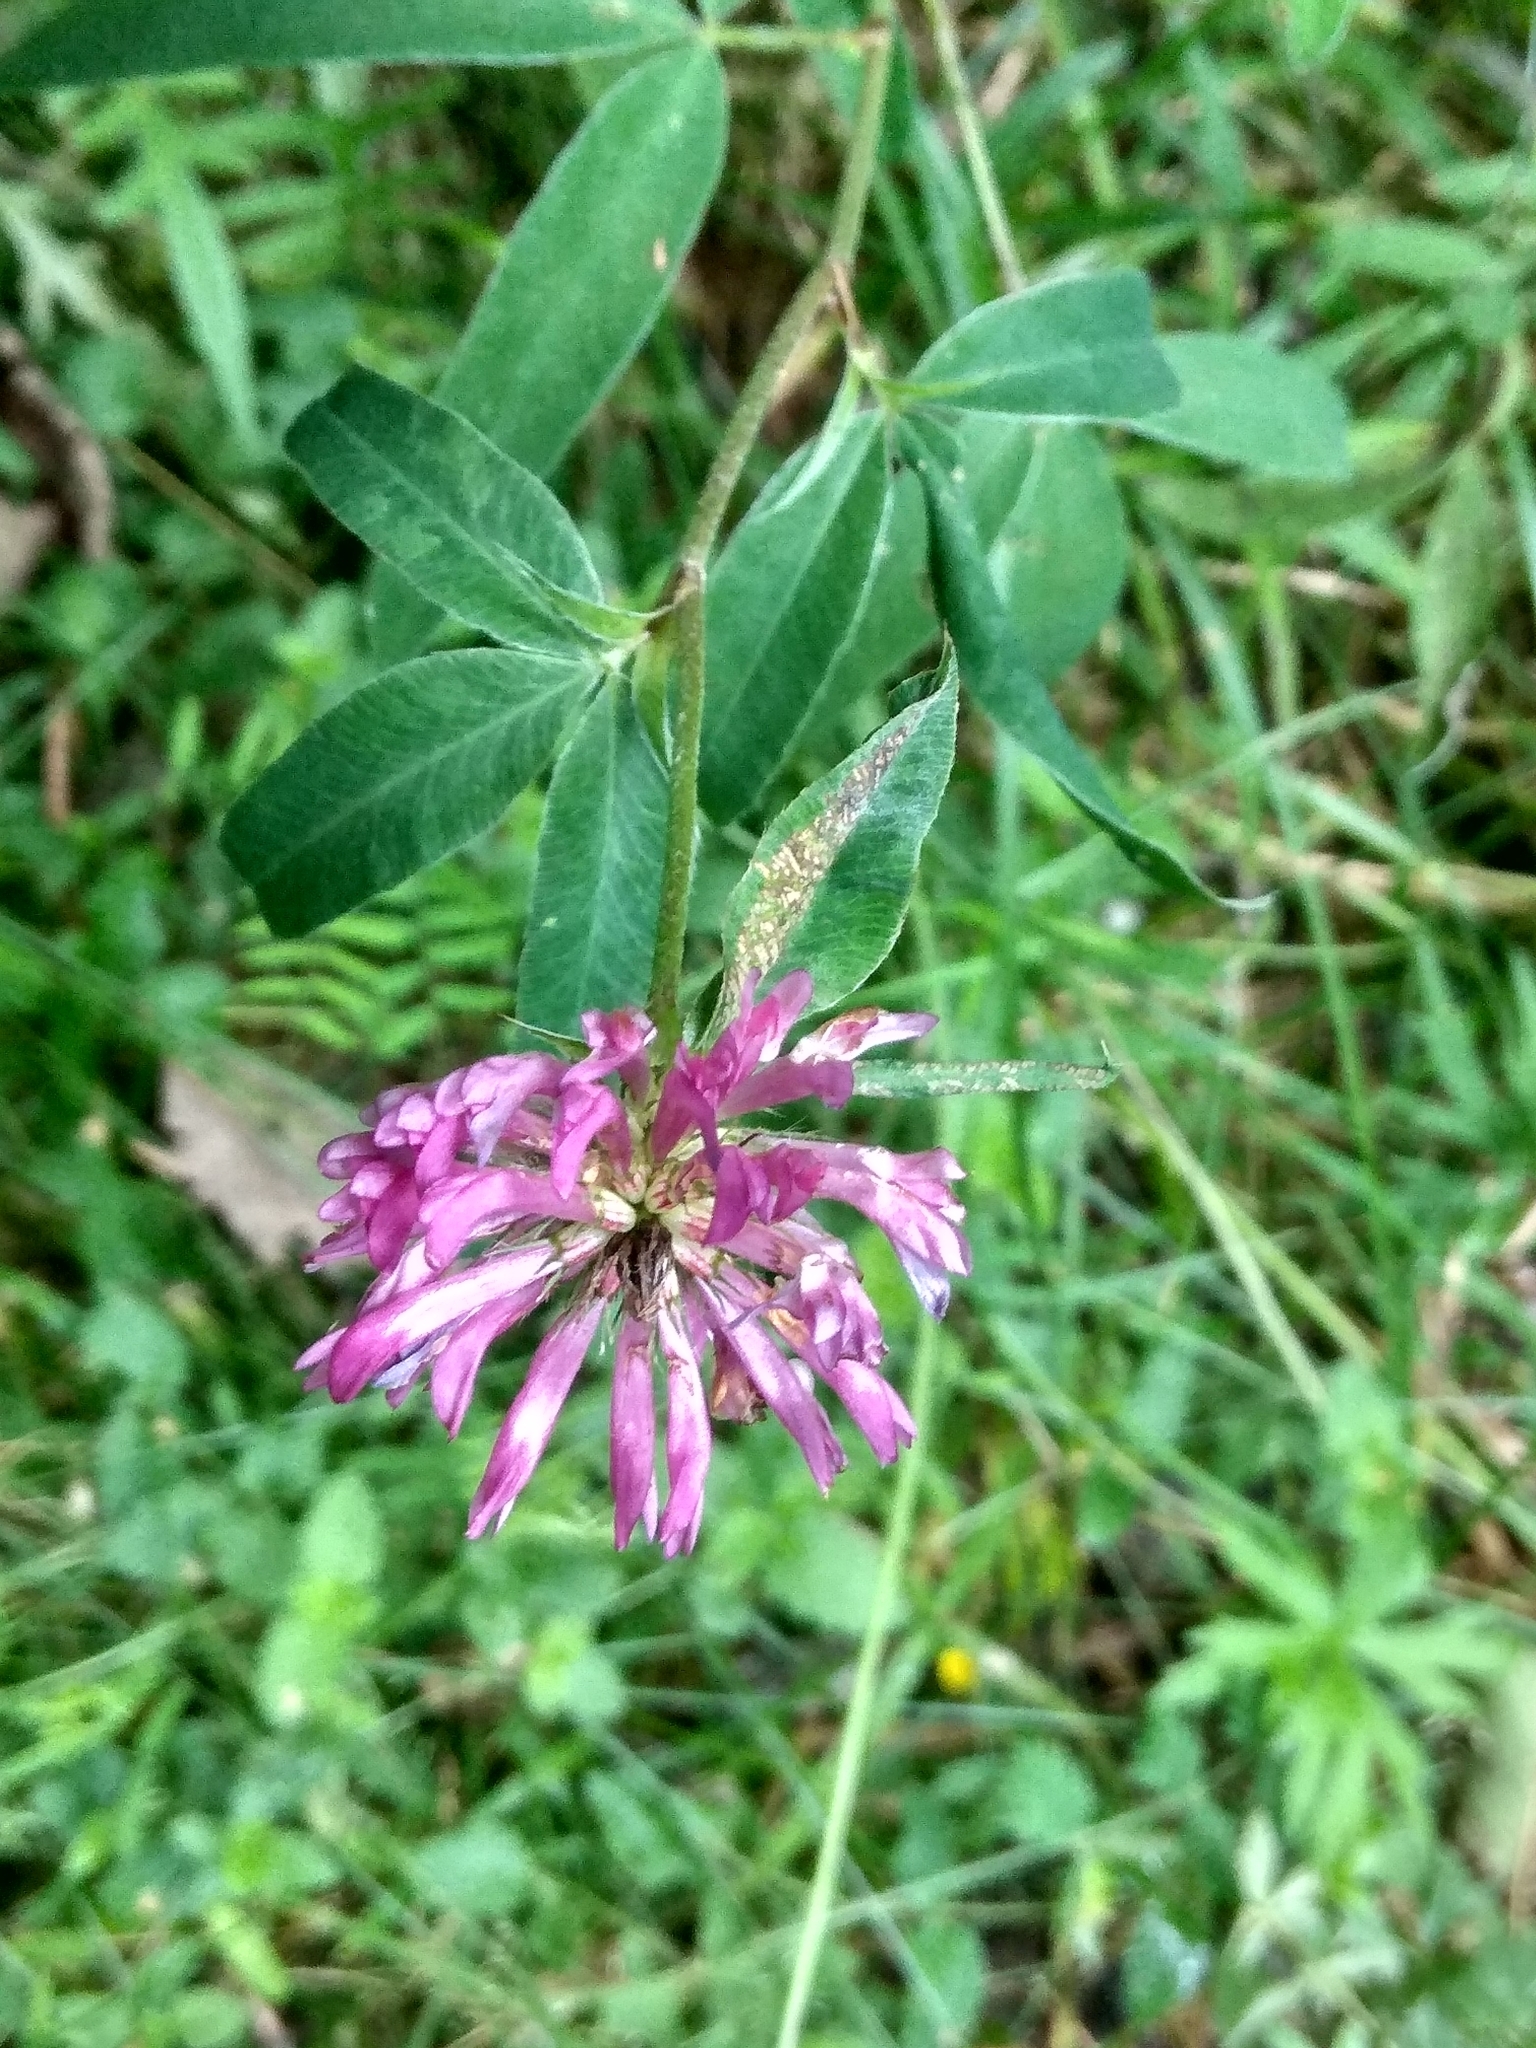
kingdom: Plantae
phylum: Tracheophyta
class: Magnoliopsida
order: Fabales
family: Fabaceae
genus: Trifolium
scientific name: Trifolium medium
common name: Zigzag clover
